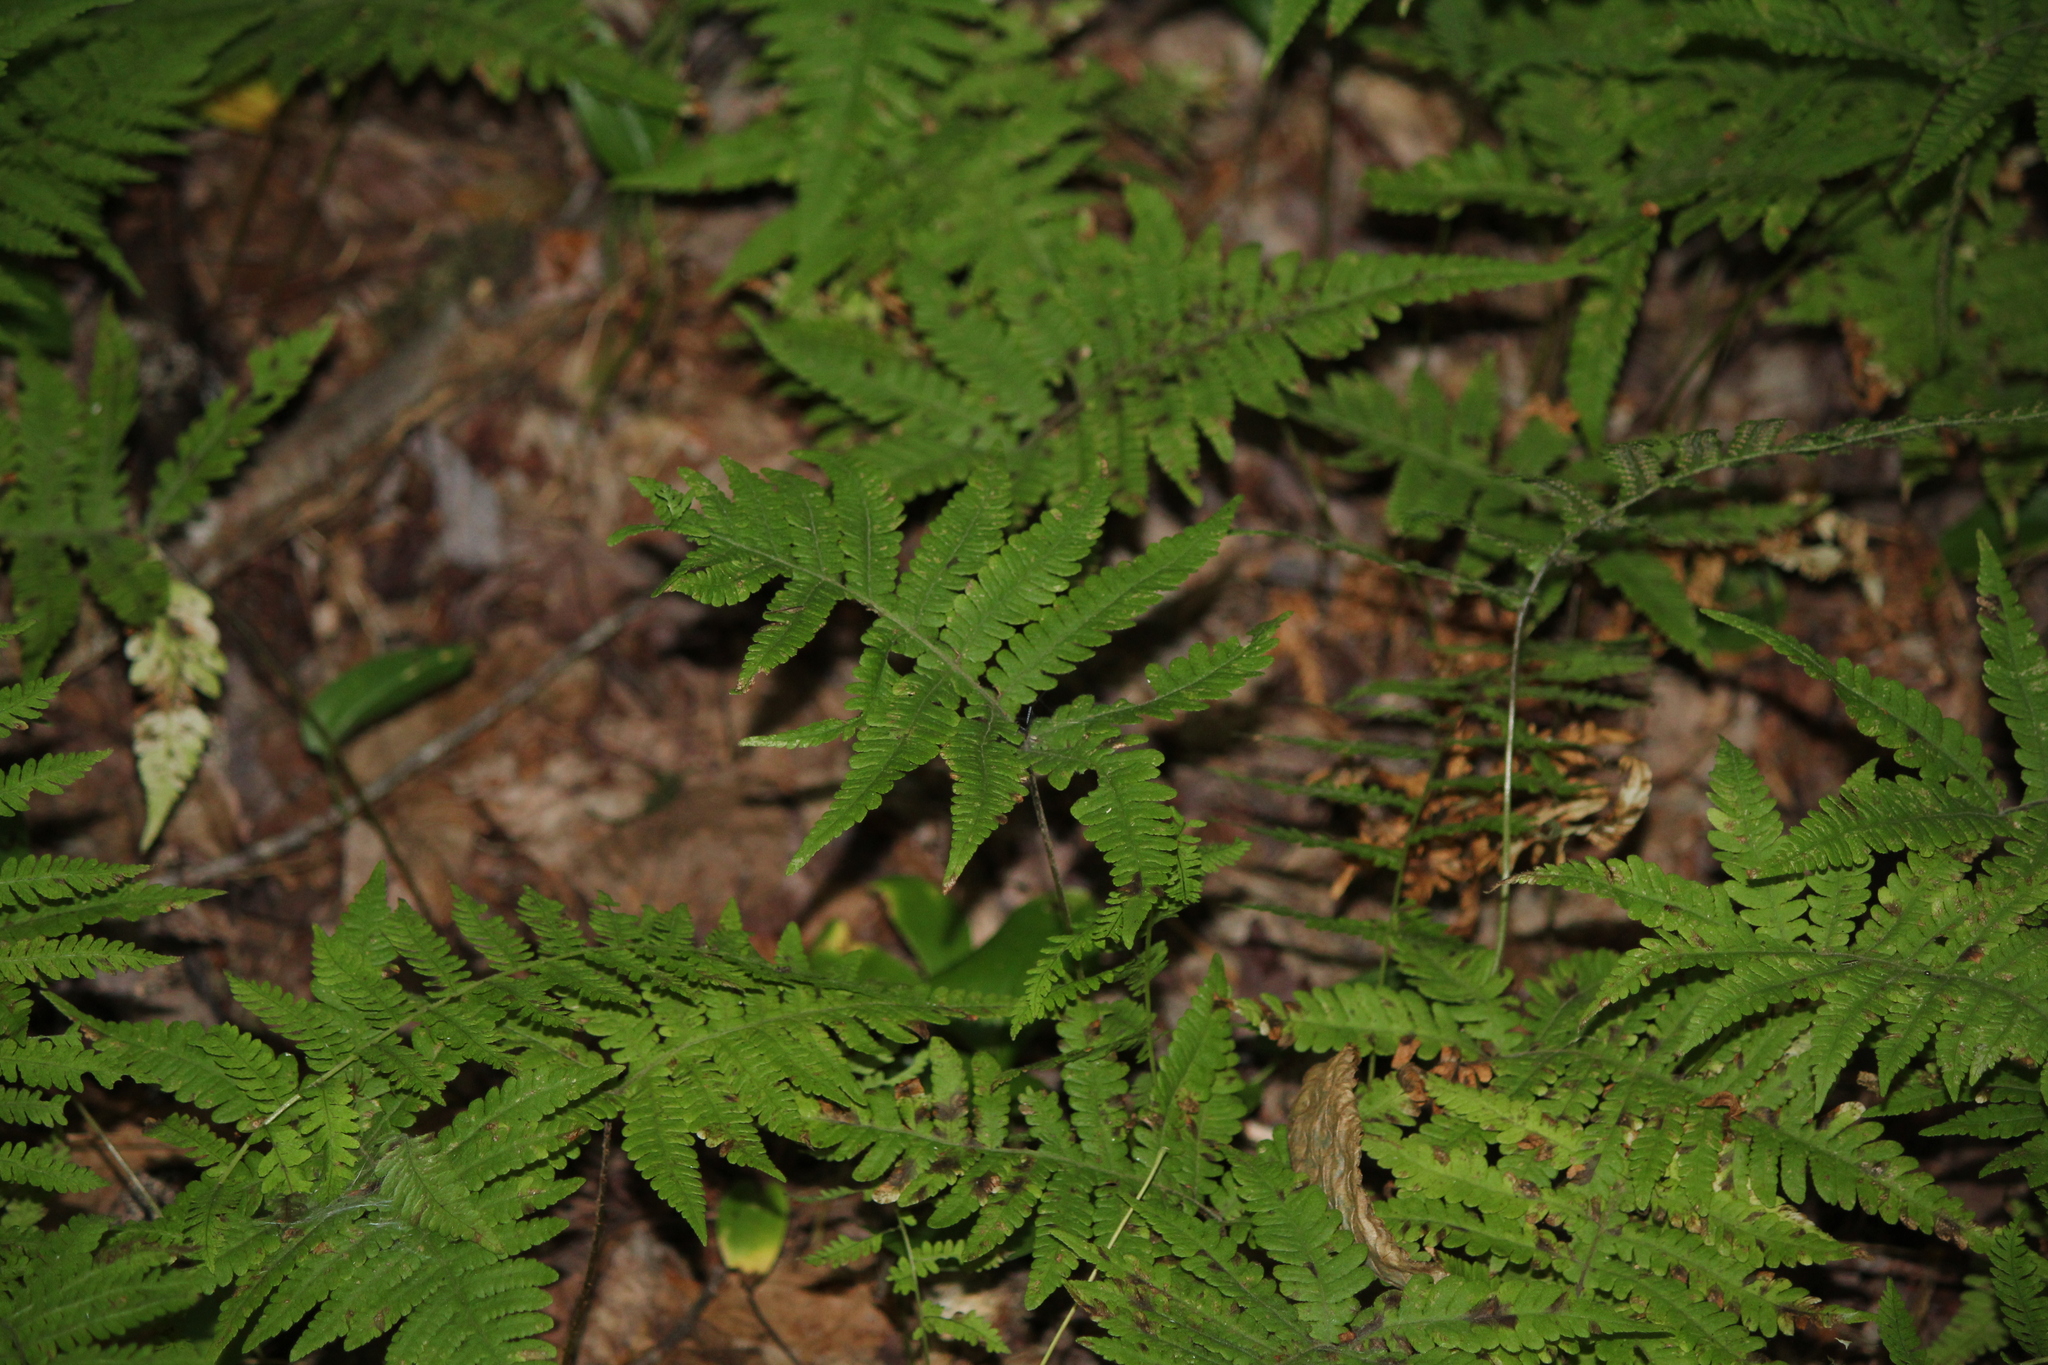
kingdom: Plantae
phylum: Tracheophyta
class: Polypodiopsida
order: Polypodiales
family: Thelypteridaceae
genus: Phegopteris
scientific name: Phegopteris connectilis
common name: Beech fern
